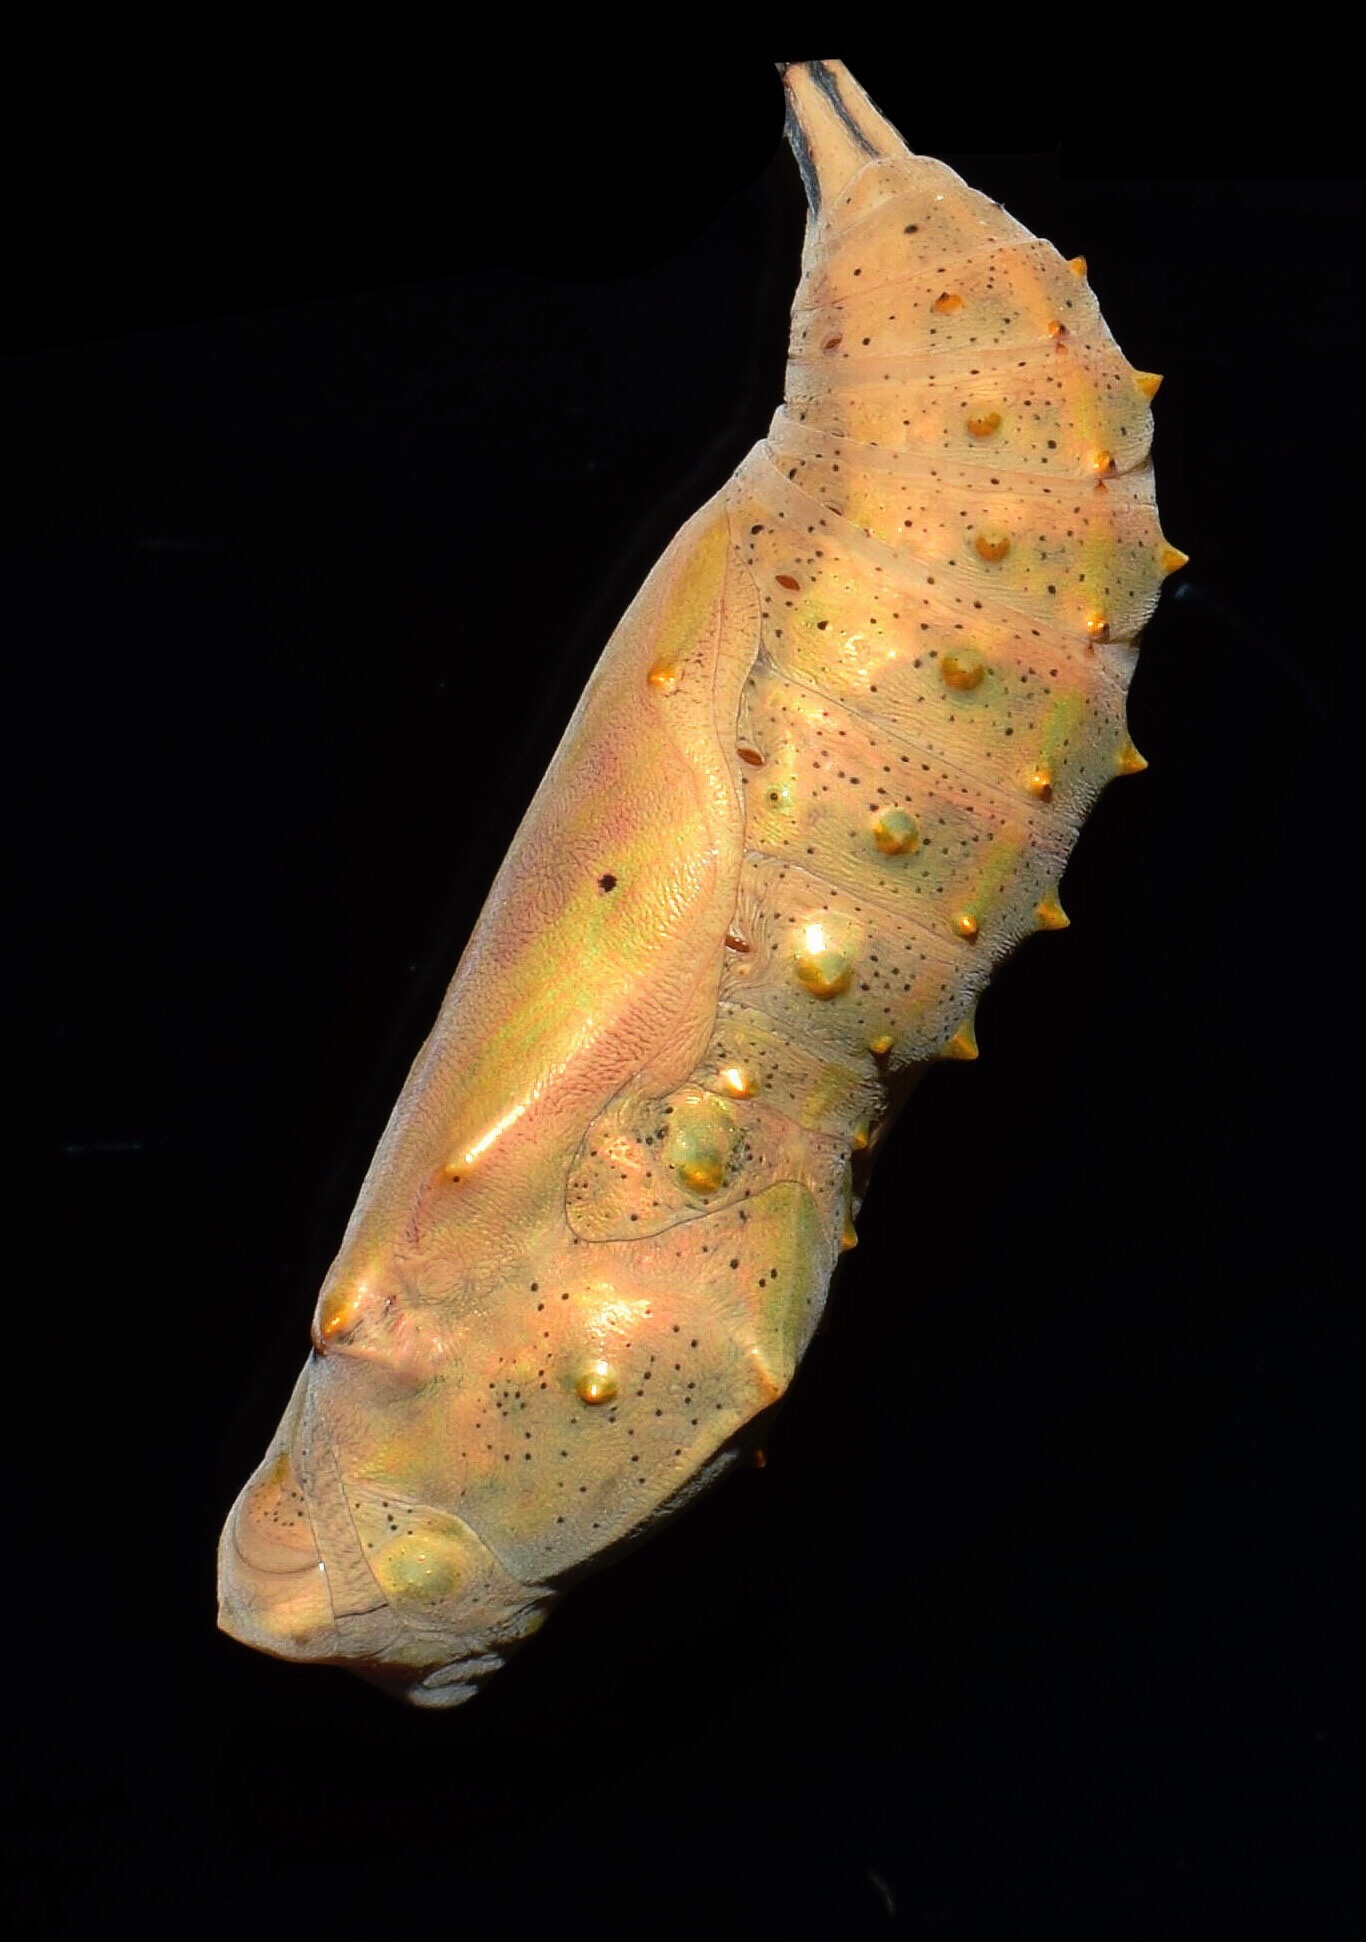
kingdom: Animalia
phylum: Arthropoda
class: Insecta
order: Lepidoptera
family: Nymphalidae
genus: Vanessa
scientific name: Vanessa cardui
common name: Painted lady
